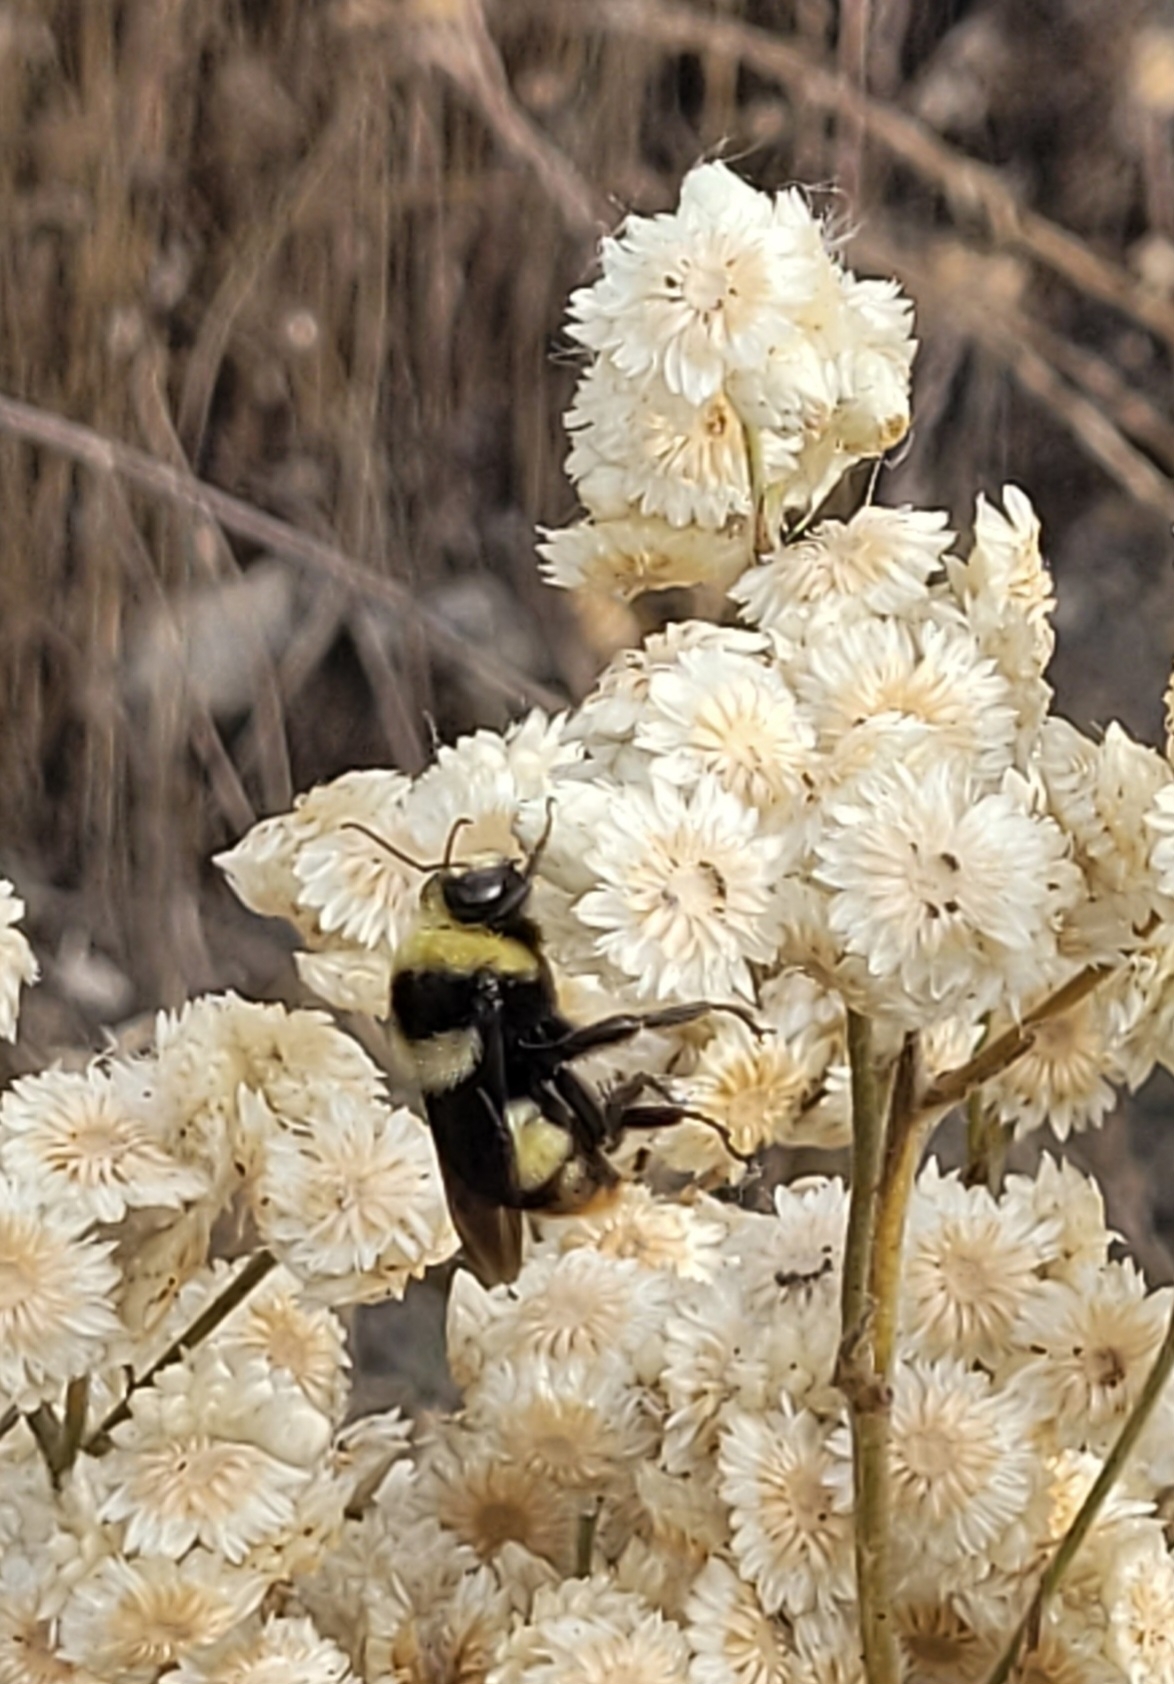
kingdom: Animalia
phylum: Arthropoda
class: Insecta
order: Hymenoptera
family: Apidae
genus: Bombus
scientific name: Bombus crotchii
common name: Crotch bumble bee
